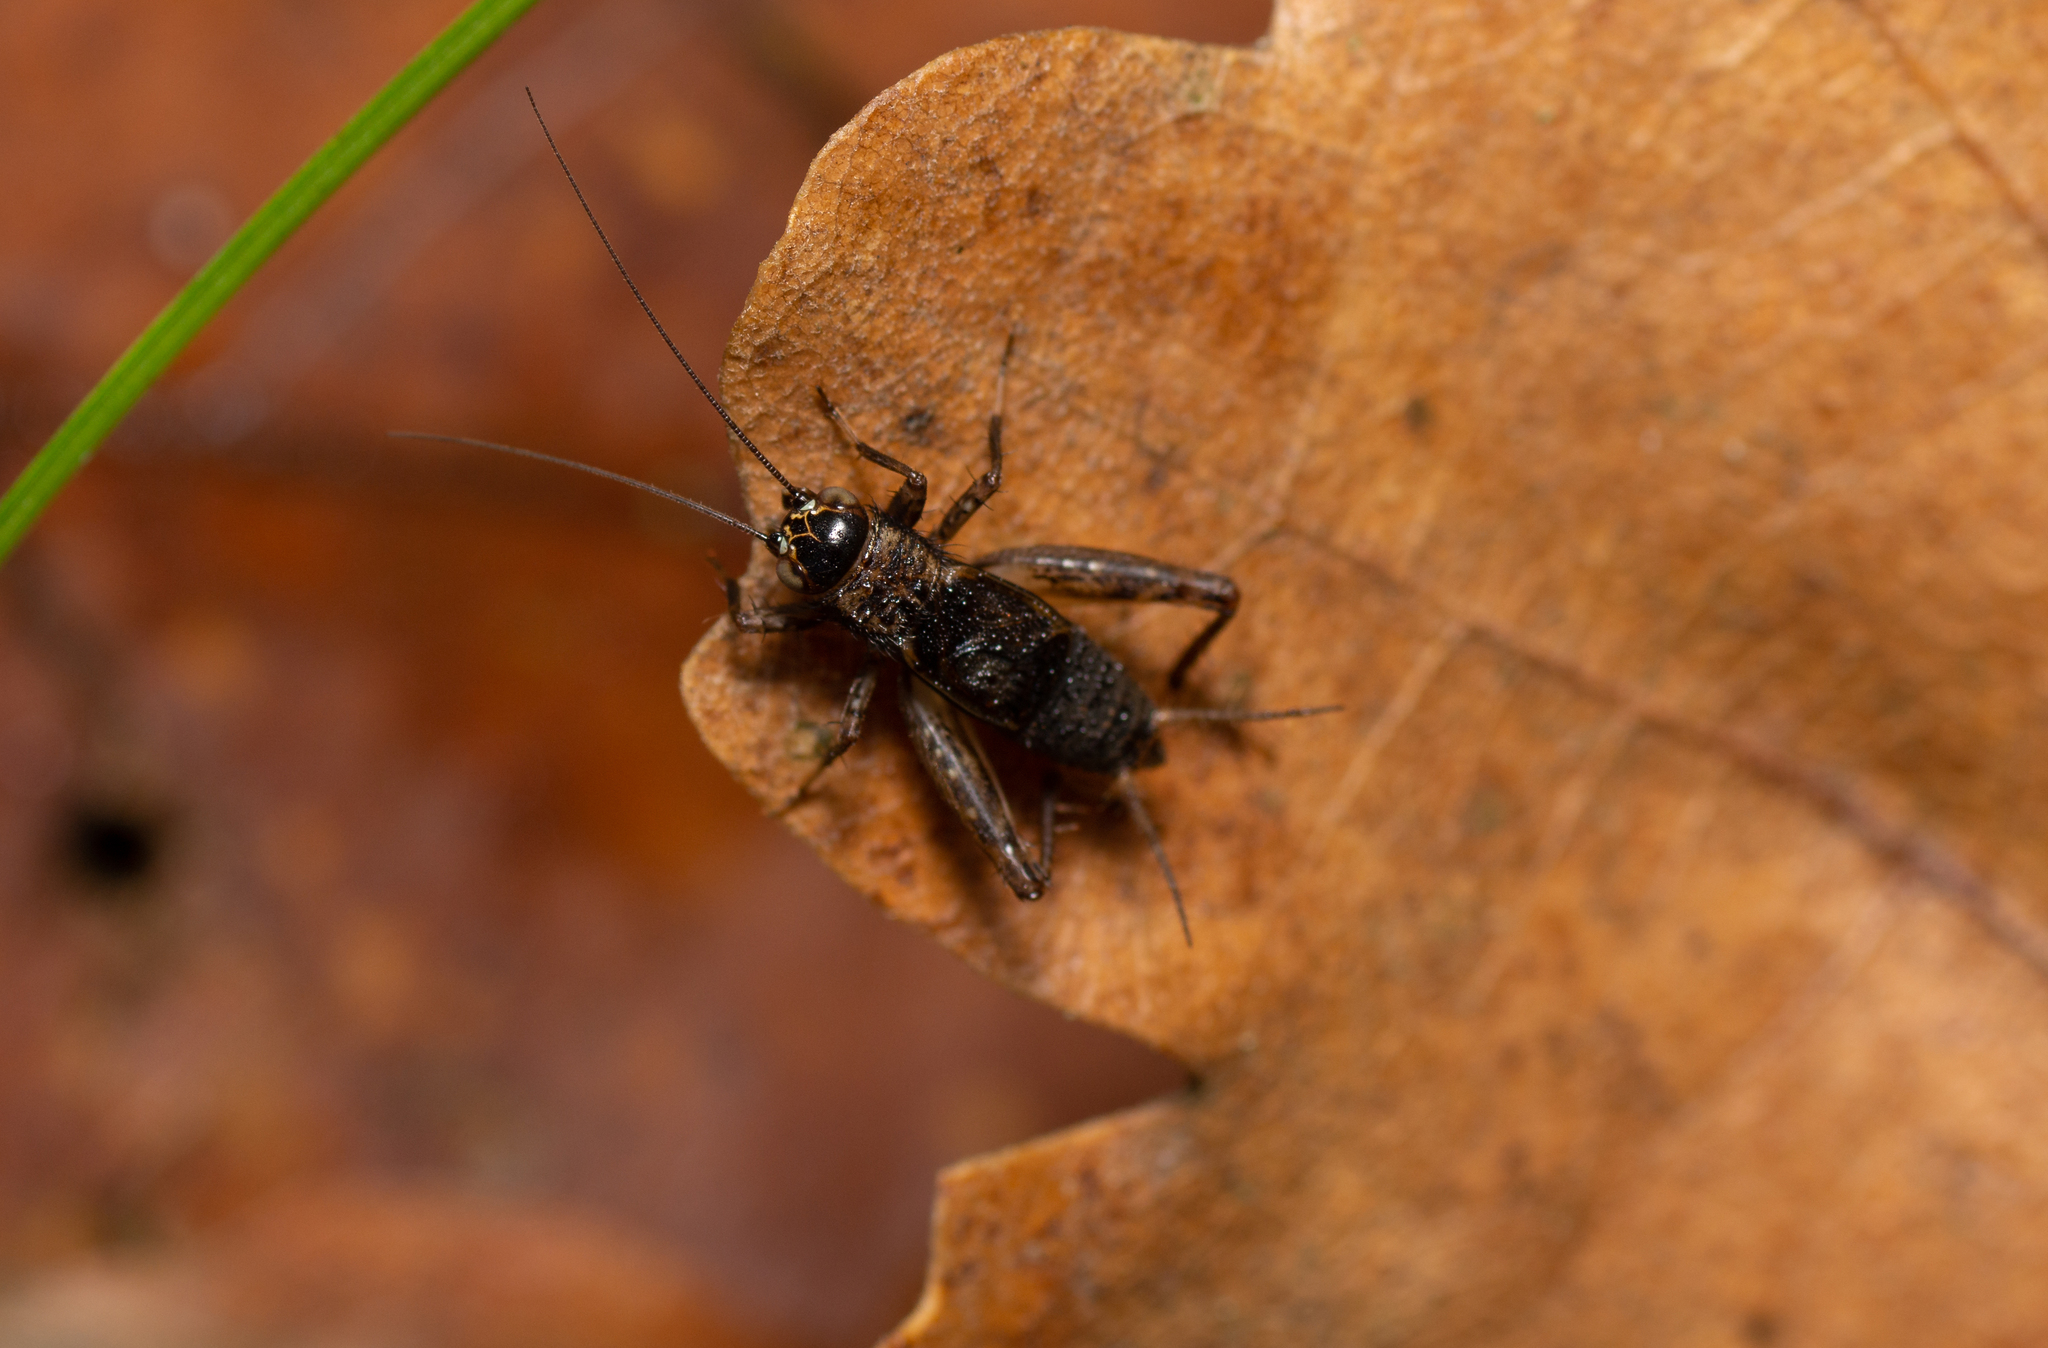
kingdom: Animalia
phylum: Arthropoda
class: Insecta
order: Orthoptera
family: Trigonidiidae
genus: Nemobius
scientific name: Nemobius sylvestris
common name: Wood-cricket
